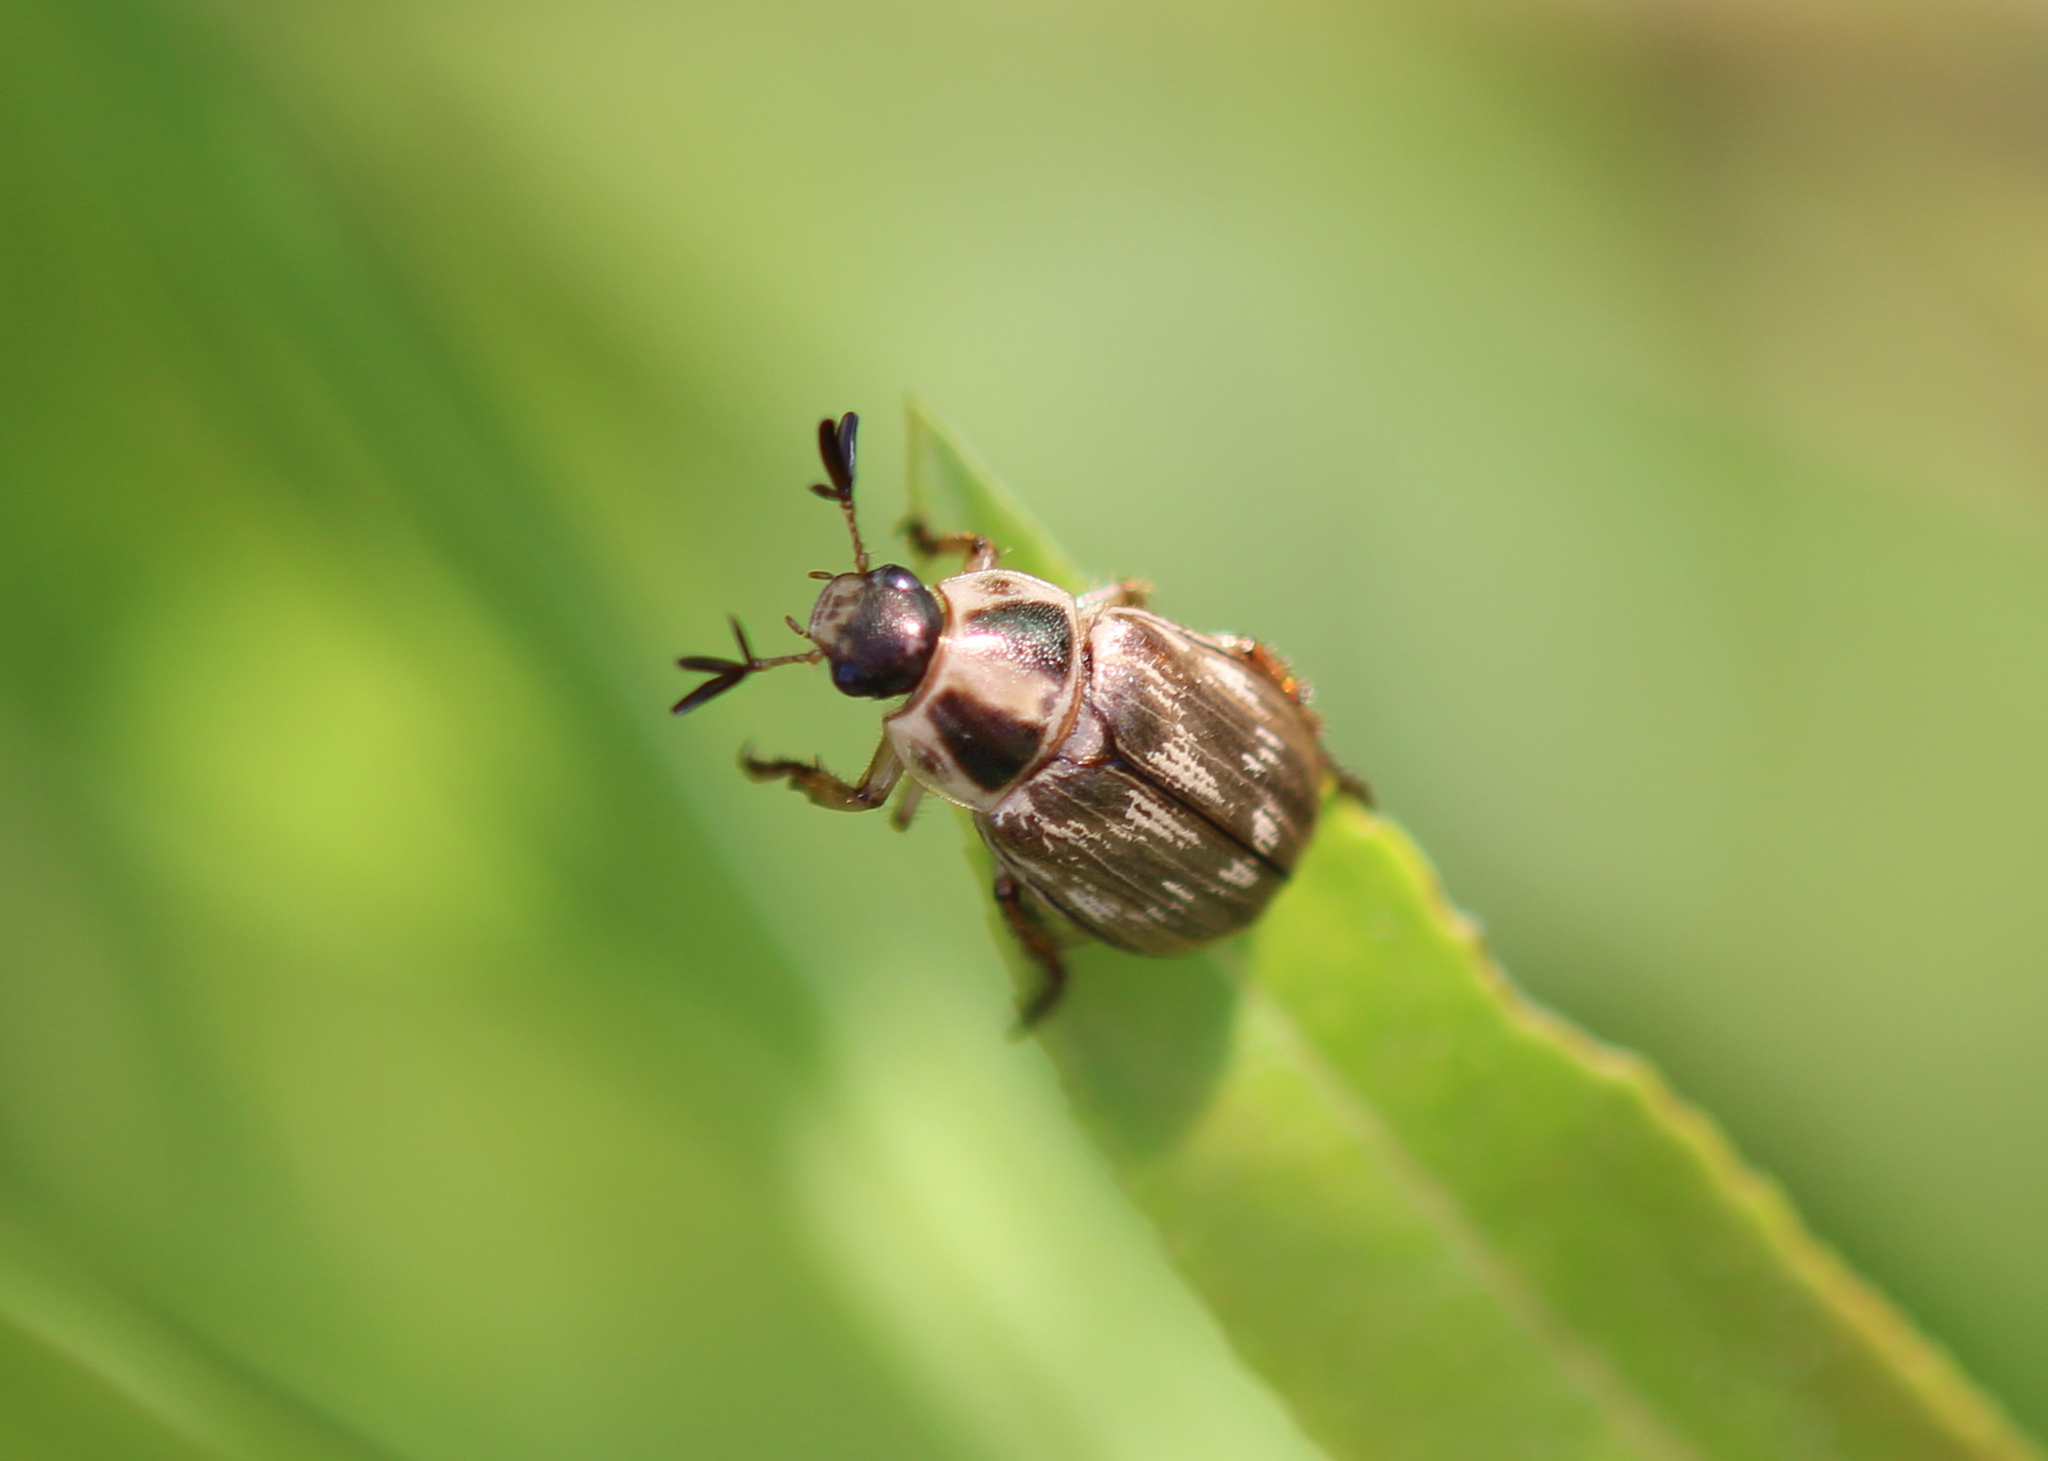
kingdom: Animalia
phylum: Arthropoda
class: Insecta
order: Coleoptera
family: Scarabaeidae
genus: Exomala
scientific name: Exomala orientalis
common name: Oriental beetle
